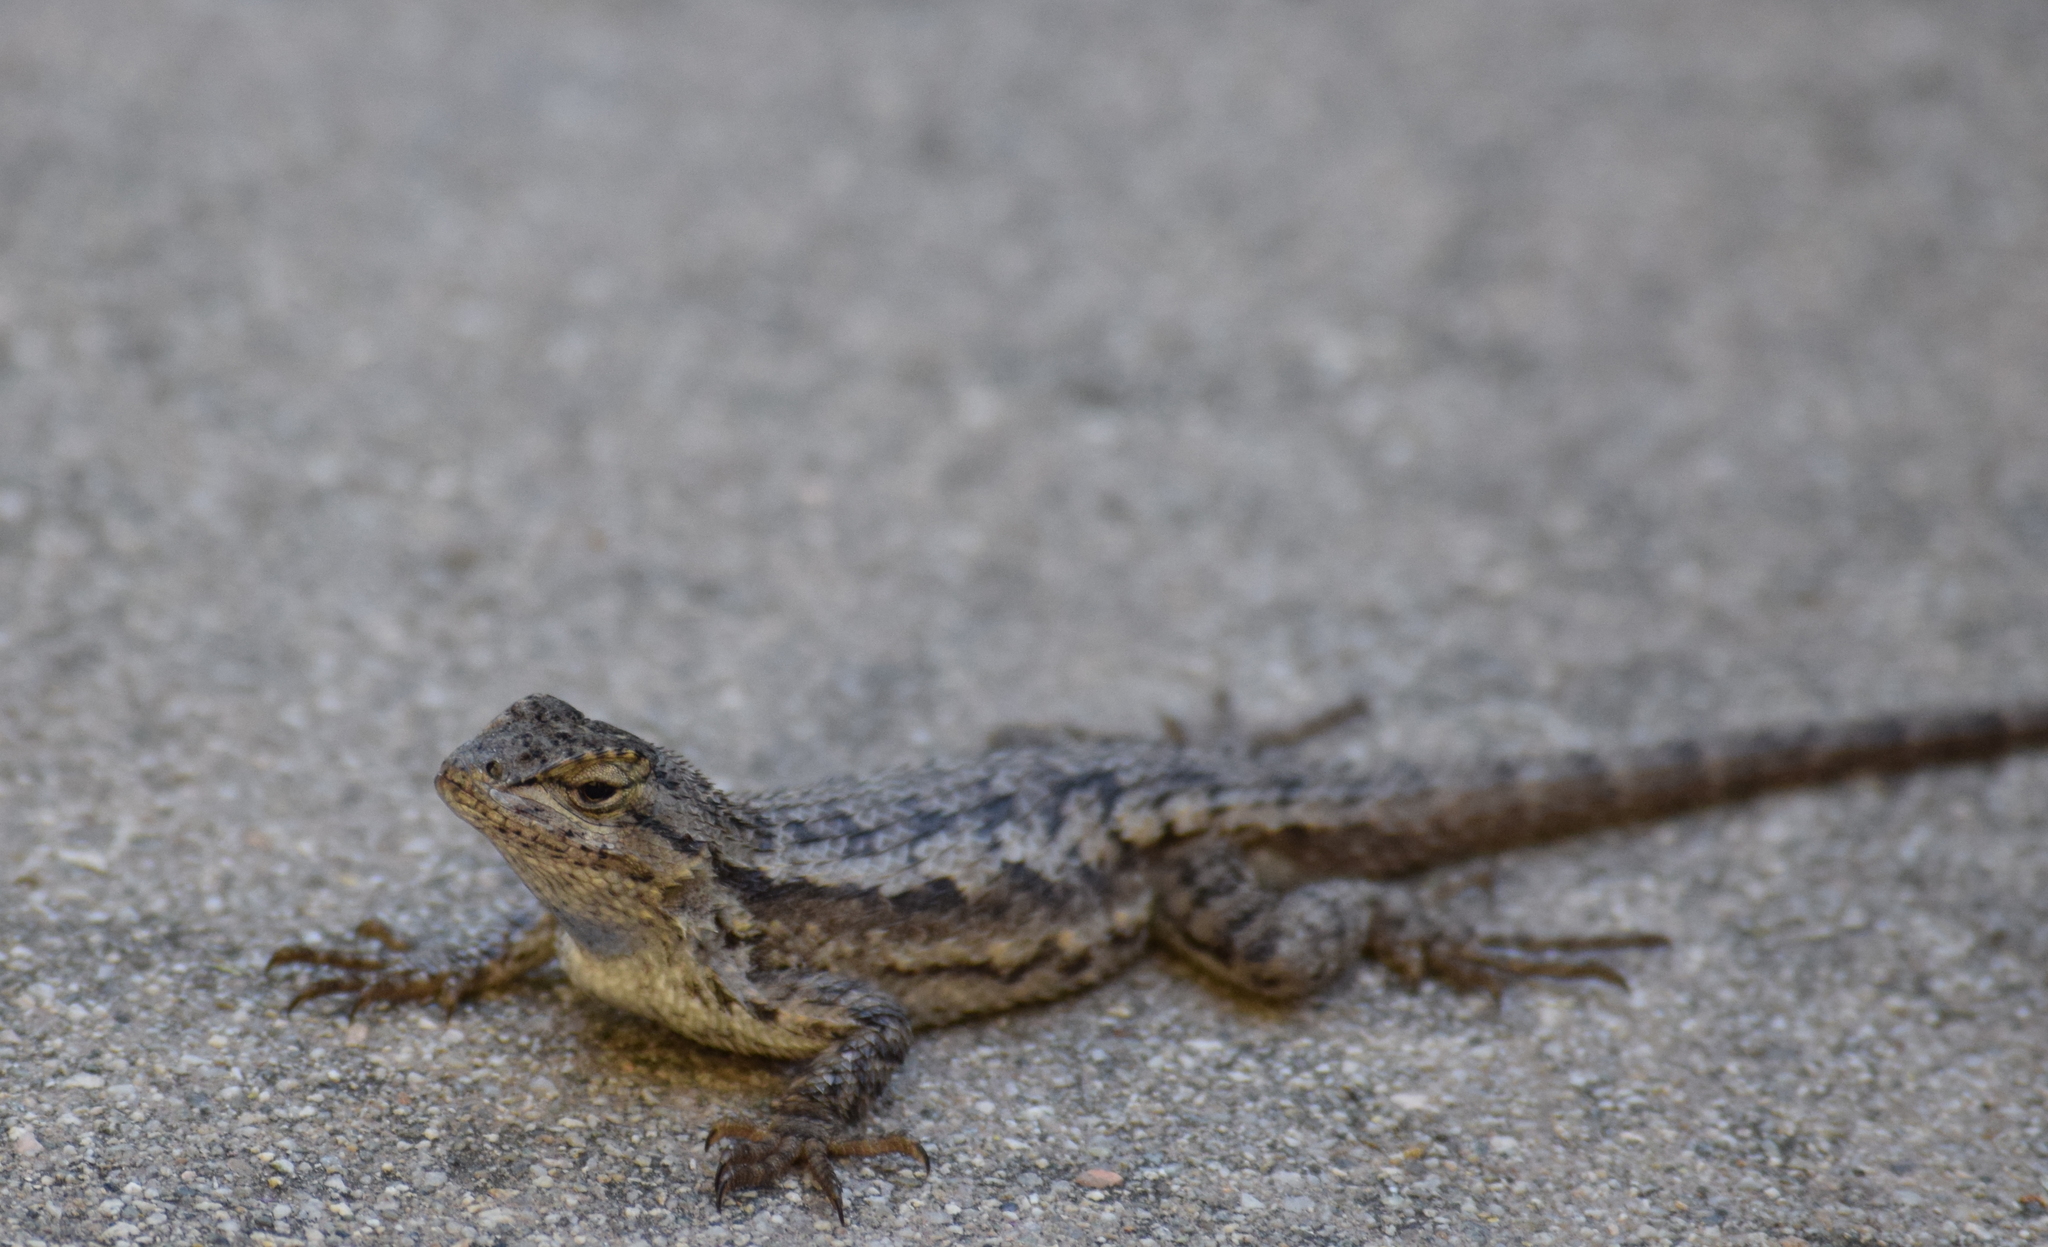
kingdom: Animalia
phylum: Chordata
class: Squamata
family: Phrynosomatidae
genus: Sceloporus
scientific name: Sceloporus occidentalis
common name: Western fence lizard
